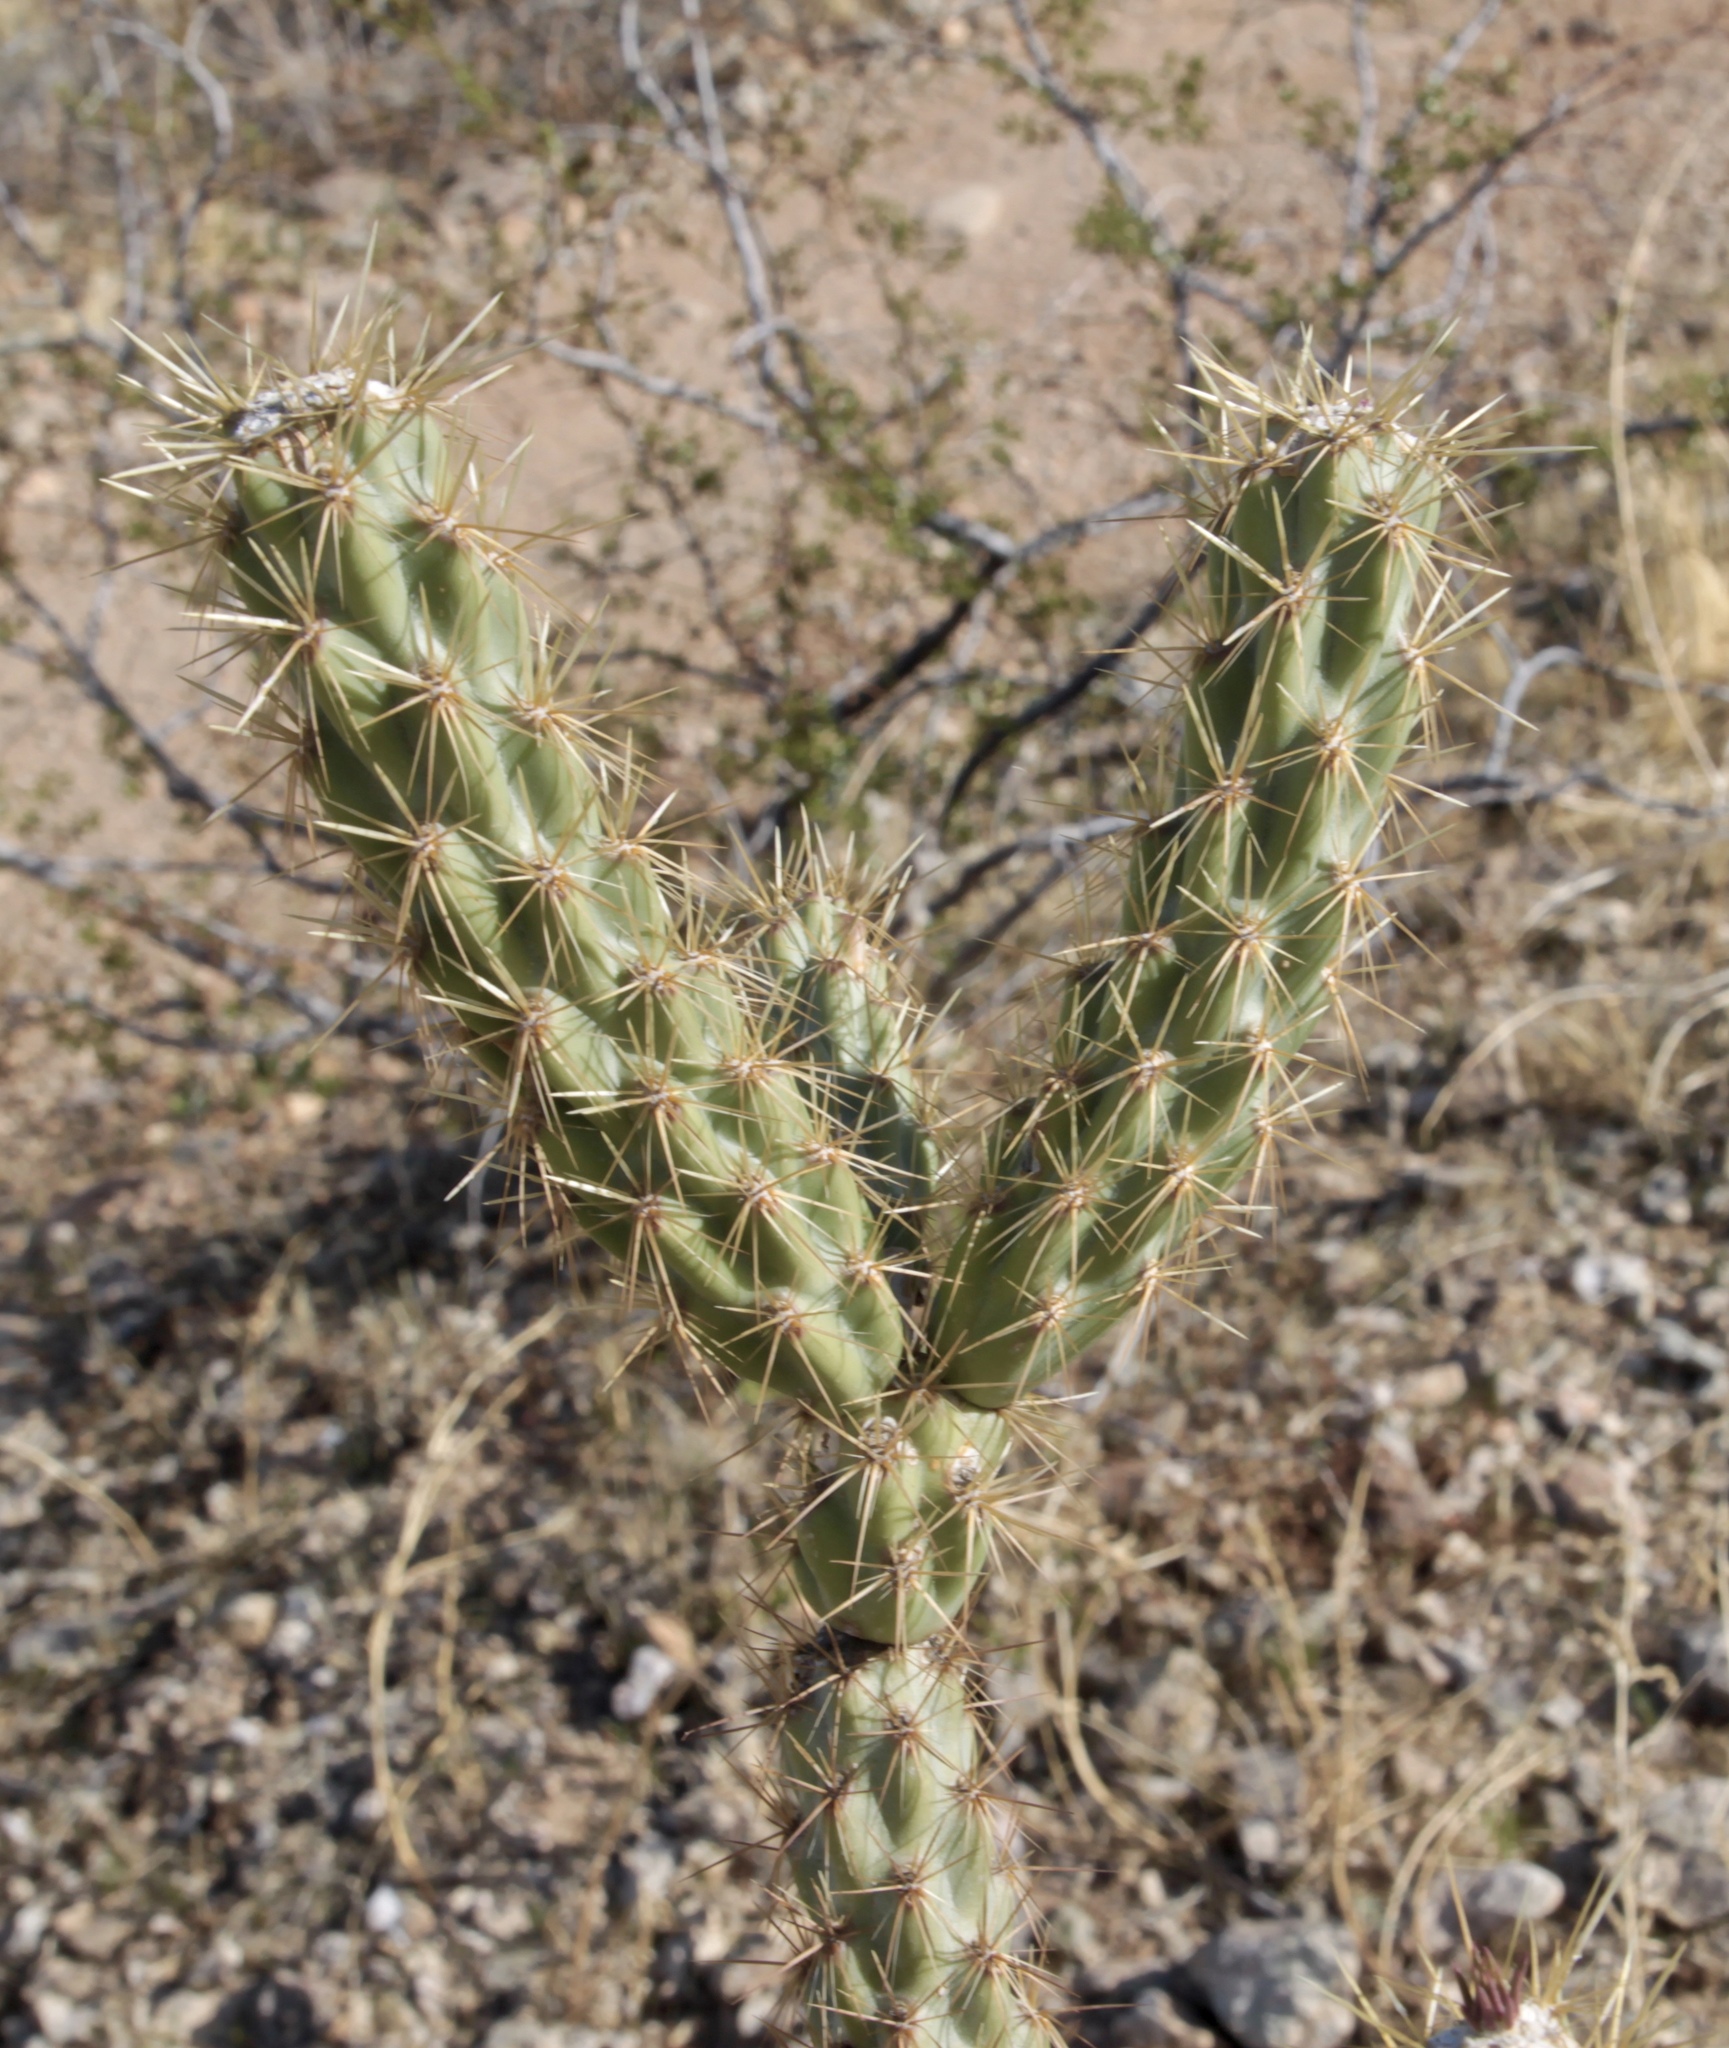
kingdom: Plantae
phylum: Tracheophyta
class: Magnoliopsida
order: Caryophyllales
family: Cactaceae
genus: Cylindropuntia
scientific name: Cylindropuntia acanthocarpa
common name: Buckhorn cholla
